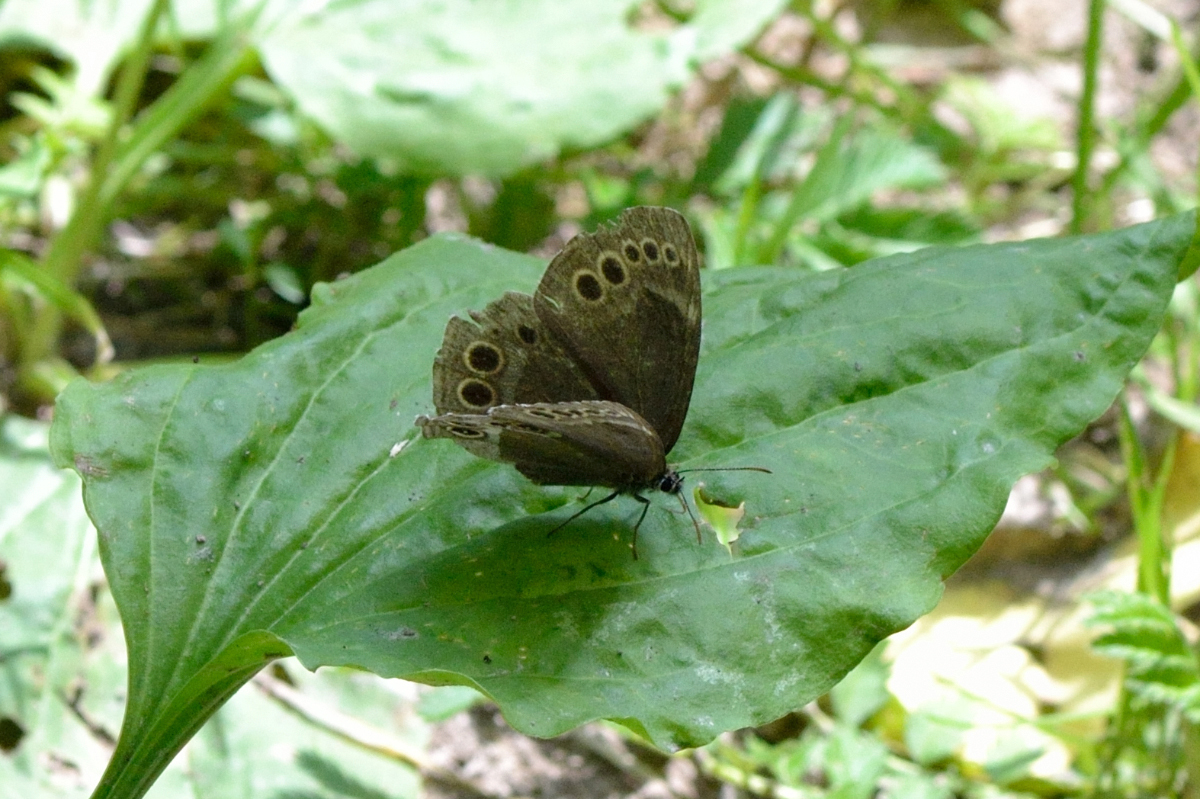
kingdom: Animalia
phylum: Arthropoda
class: Insecta
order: Lepidoptera
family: Nymphalidae
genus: Pararge
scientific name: Pararge Lopinga achine
